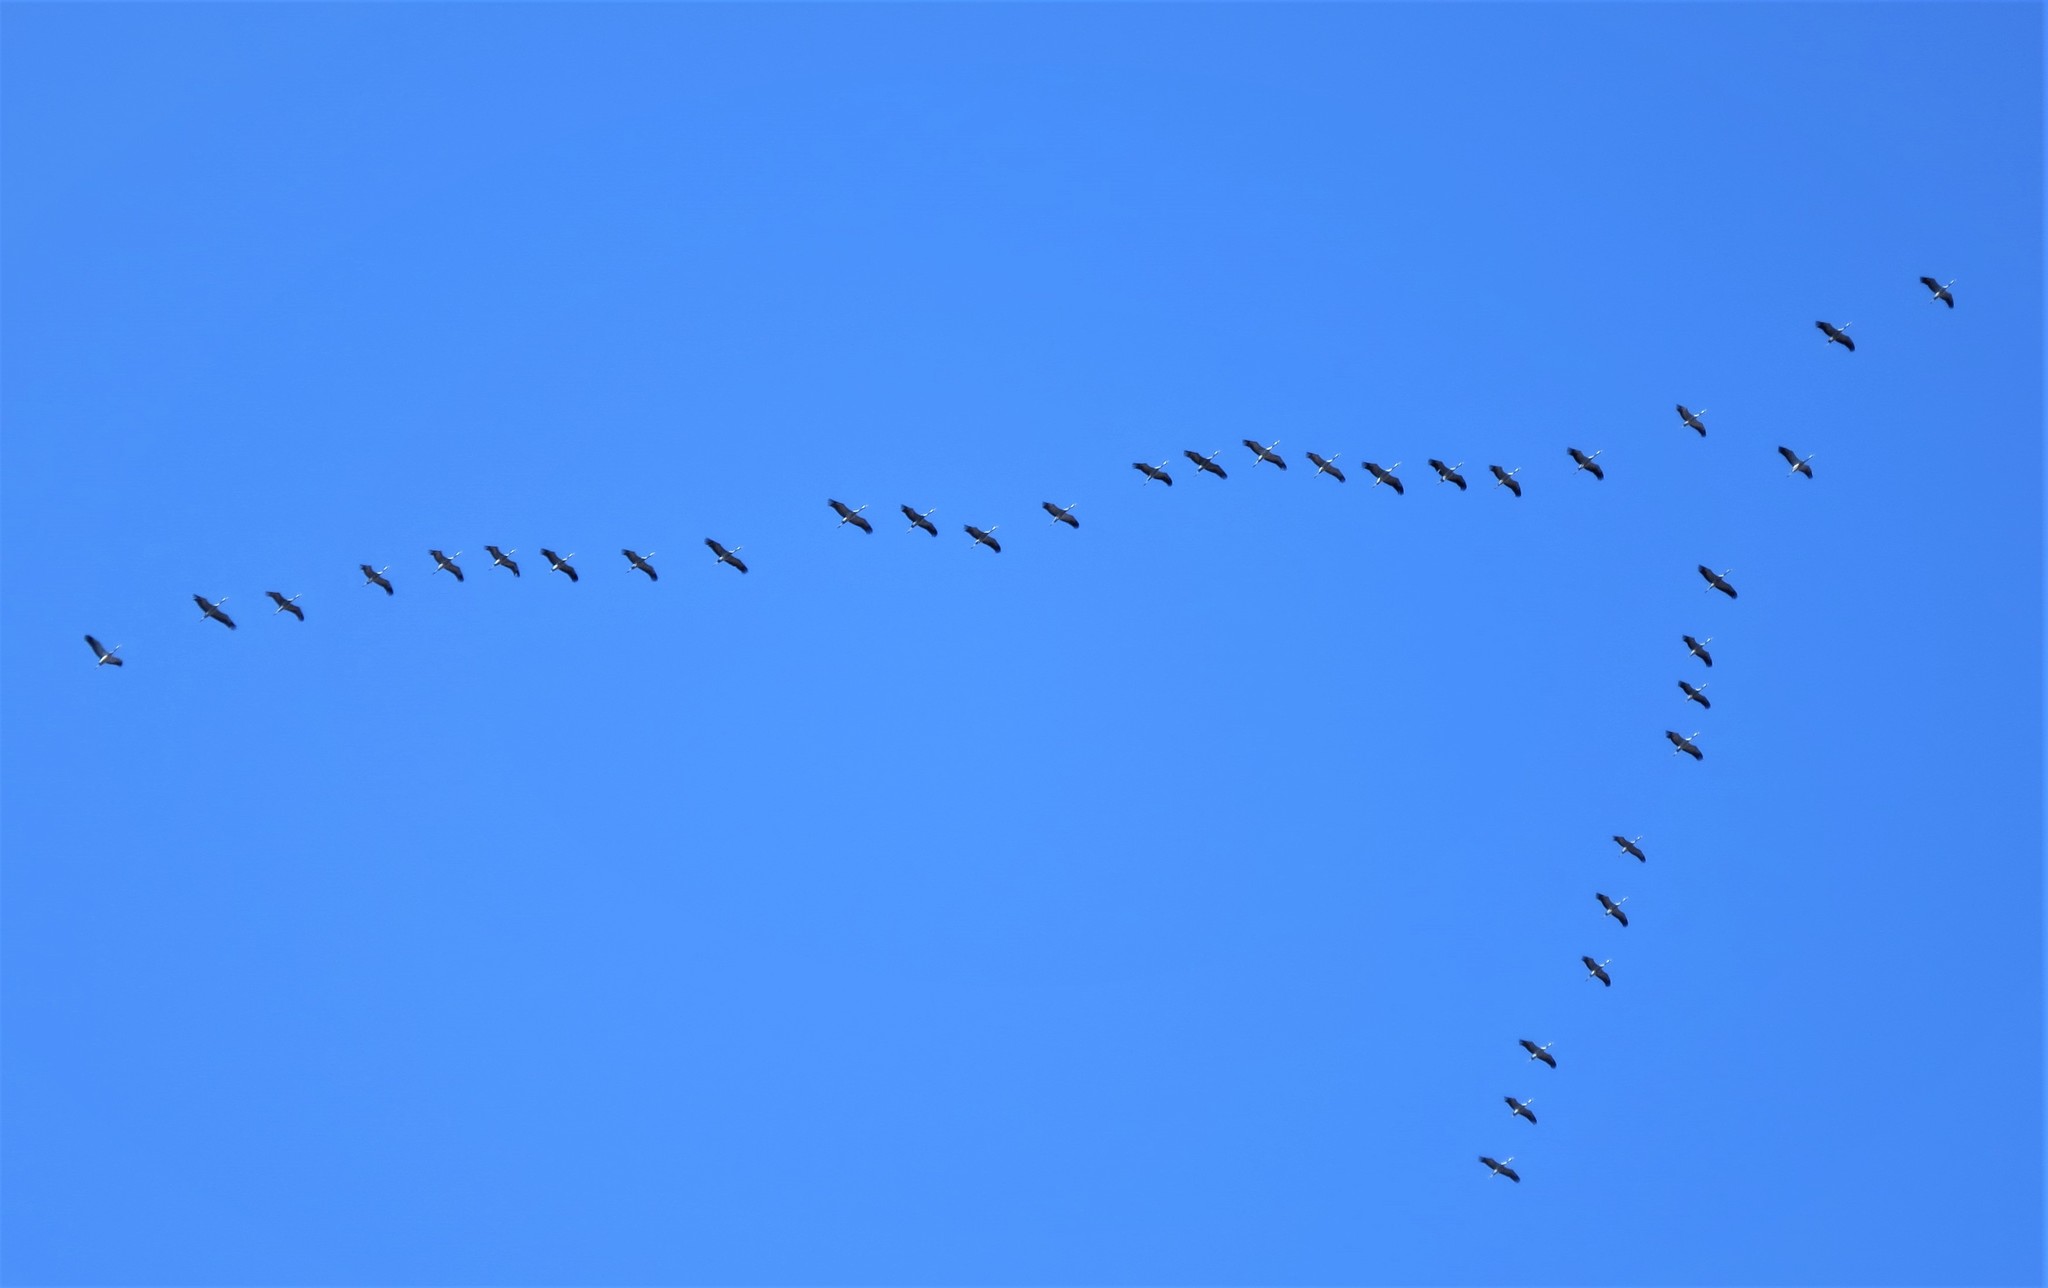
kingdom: Animalia
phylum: Chordata
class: Aves
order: Gruiformes
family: Gruidae
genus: Grus
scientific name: Grus grus
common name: Common crane
